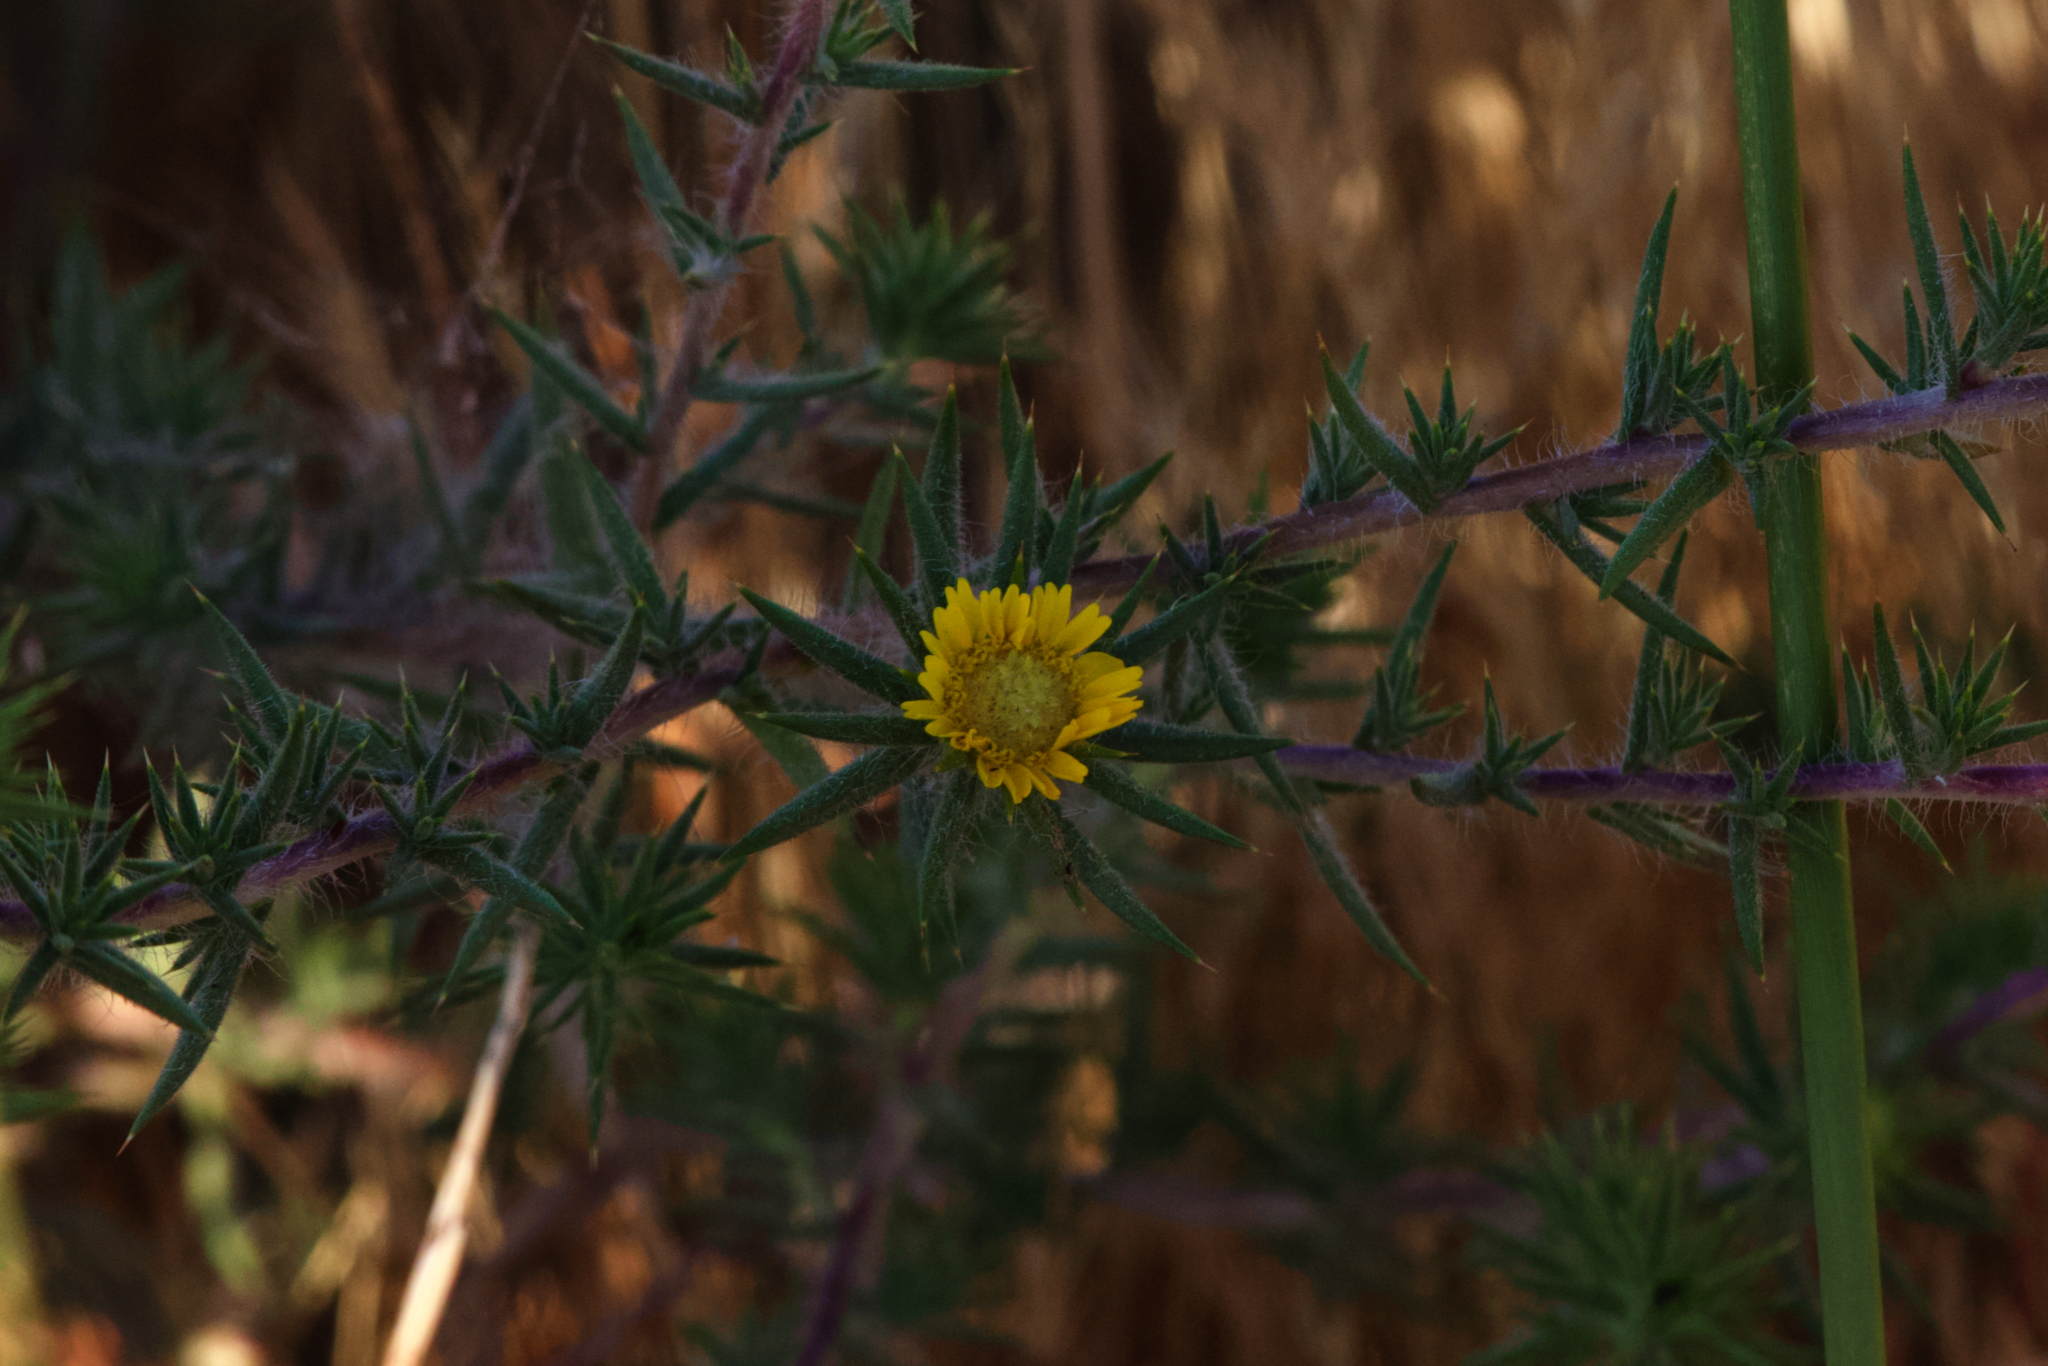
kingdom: Plantae
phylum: Tracheophyta
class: Magnoliopsida
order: Asterales
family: Asteraceae
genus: Centromadia
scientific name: Centromadia pungens
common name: Common spikeweed
